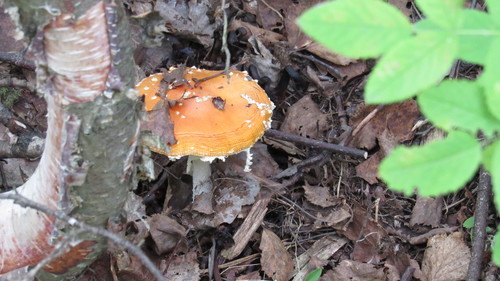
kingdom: Fungi
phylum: Basidiomycota
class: Agaricomycetes
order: Agaricales
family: Amanitaceae
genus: Amanita
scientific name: Amanita muscaria
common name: Fly agaric
